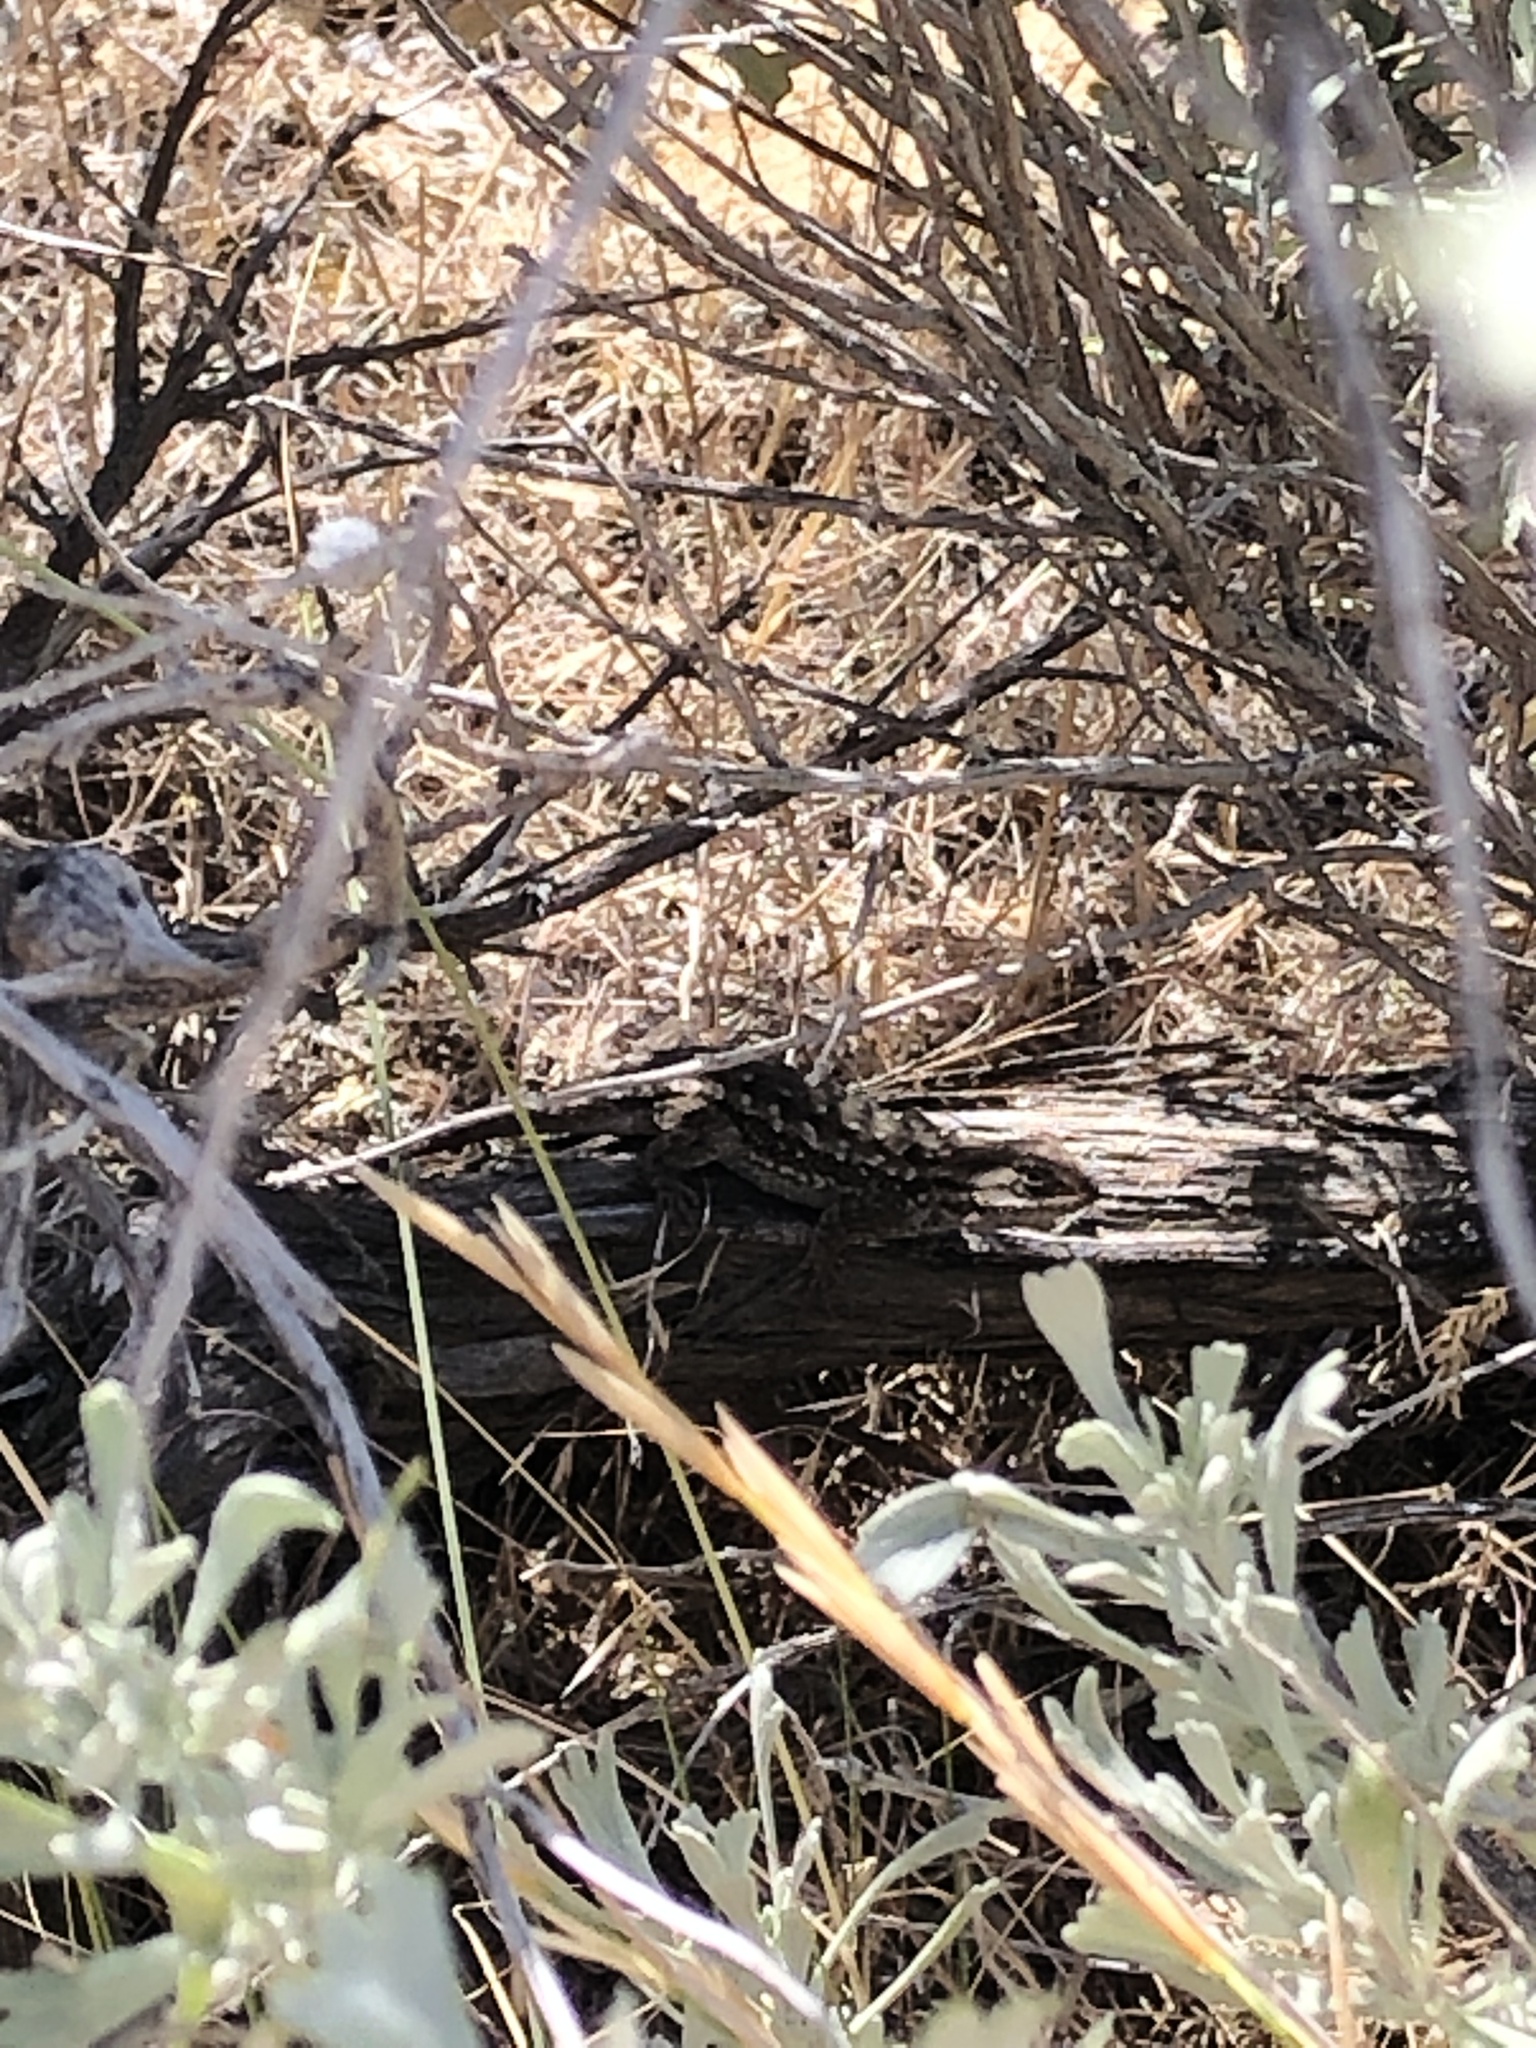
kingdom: Animalia
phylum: Chordata
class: Squamata
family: Phrynosomatidae
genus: Sceloporus
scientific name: Sceloporus occidentalis
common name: Western fence lizard
